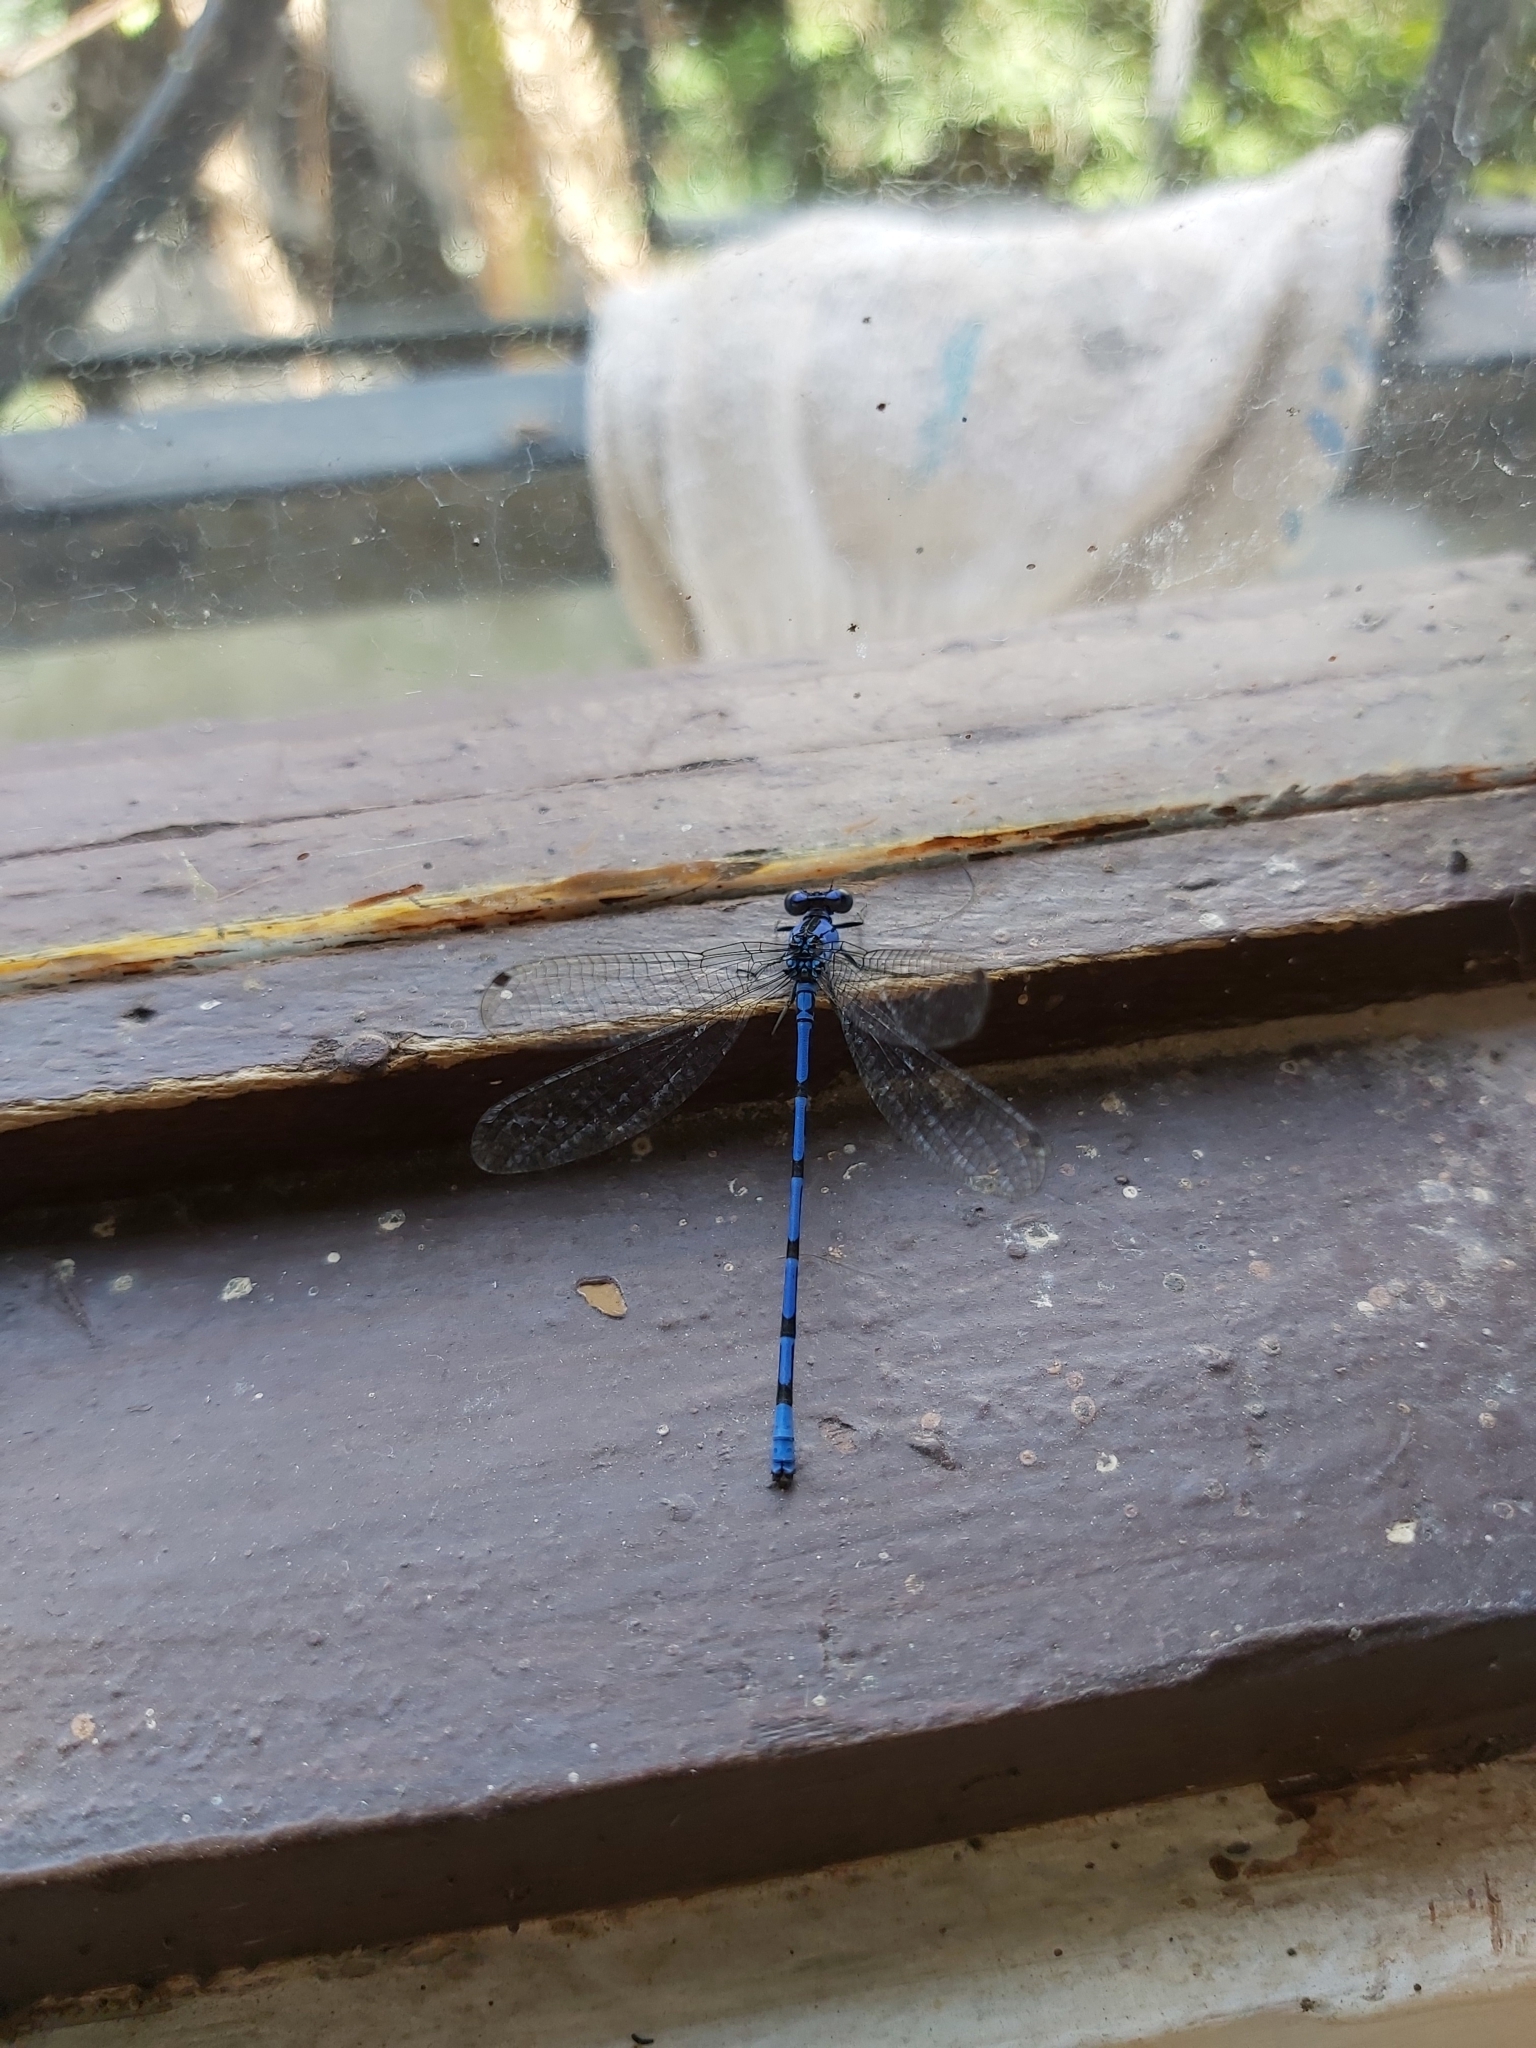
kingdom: Animalia
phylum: Arthropoda
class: Insecta
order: Odonata
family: Coenagrionidae
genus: Argia
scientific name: Argia elongata
